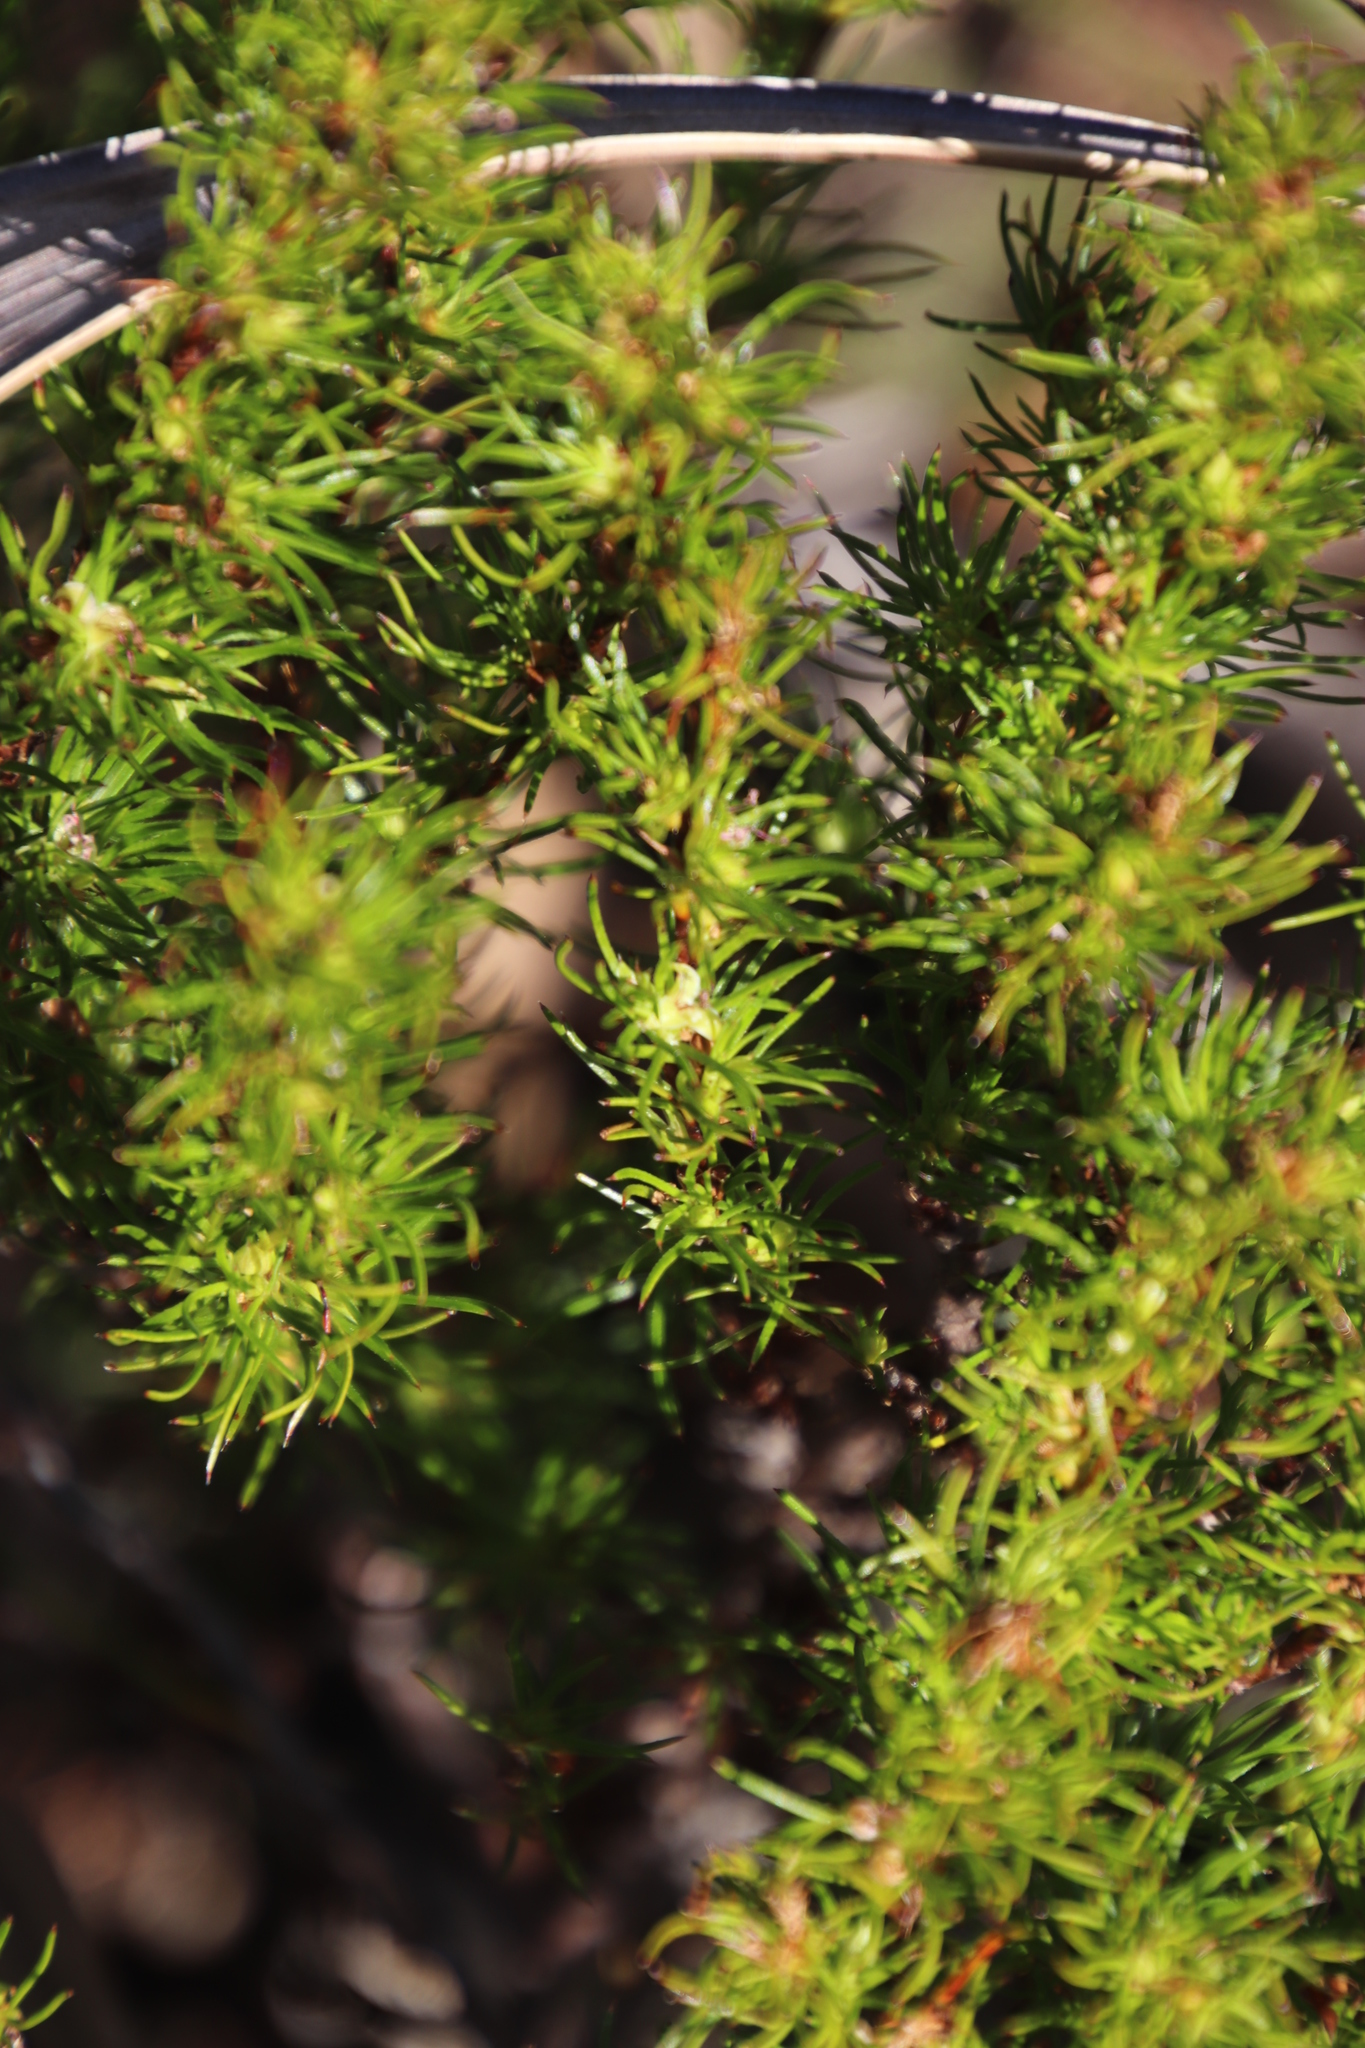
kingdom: Plantae
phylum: Tracheophyta
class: Magnoliopsida
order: Rosales
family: Rosaceae
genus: Cliffortia
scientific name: Cliffortia filifolia
